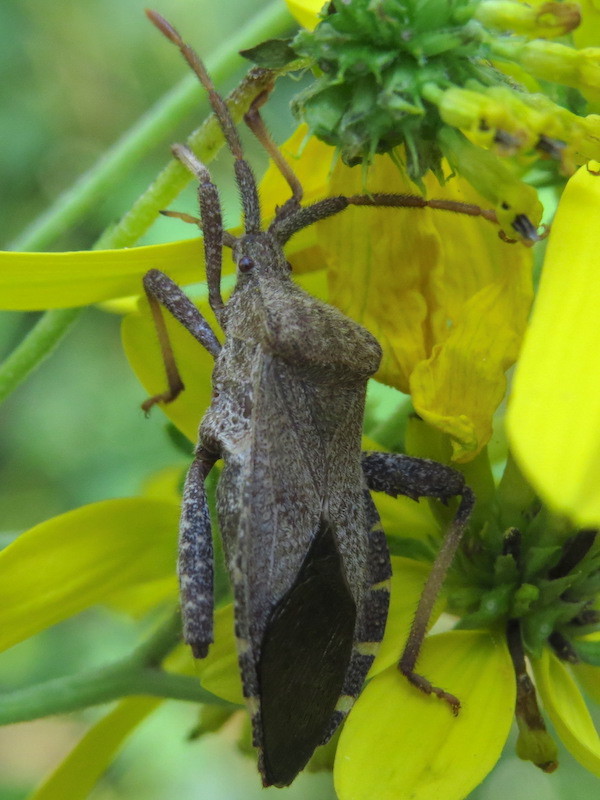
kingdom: Animalia
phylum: Arthropoda
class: Insecta
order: Hemiptera
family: Coreidae
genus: Piezogaster
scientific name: Piezogaster calcarator
